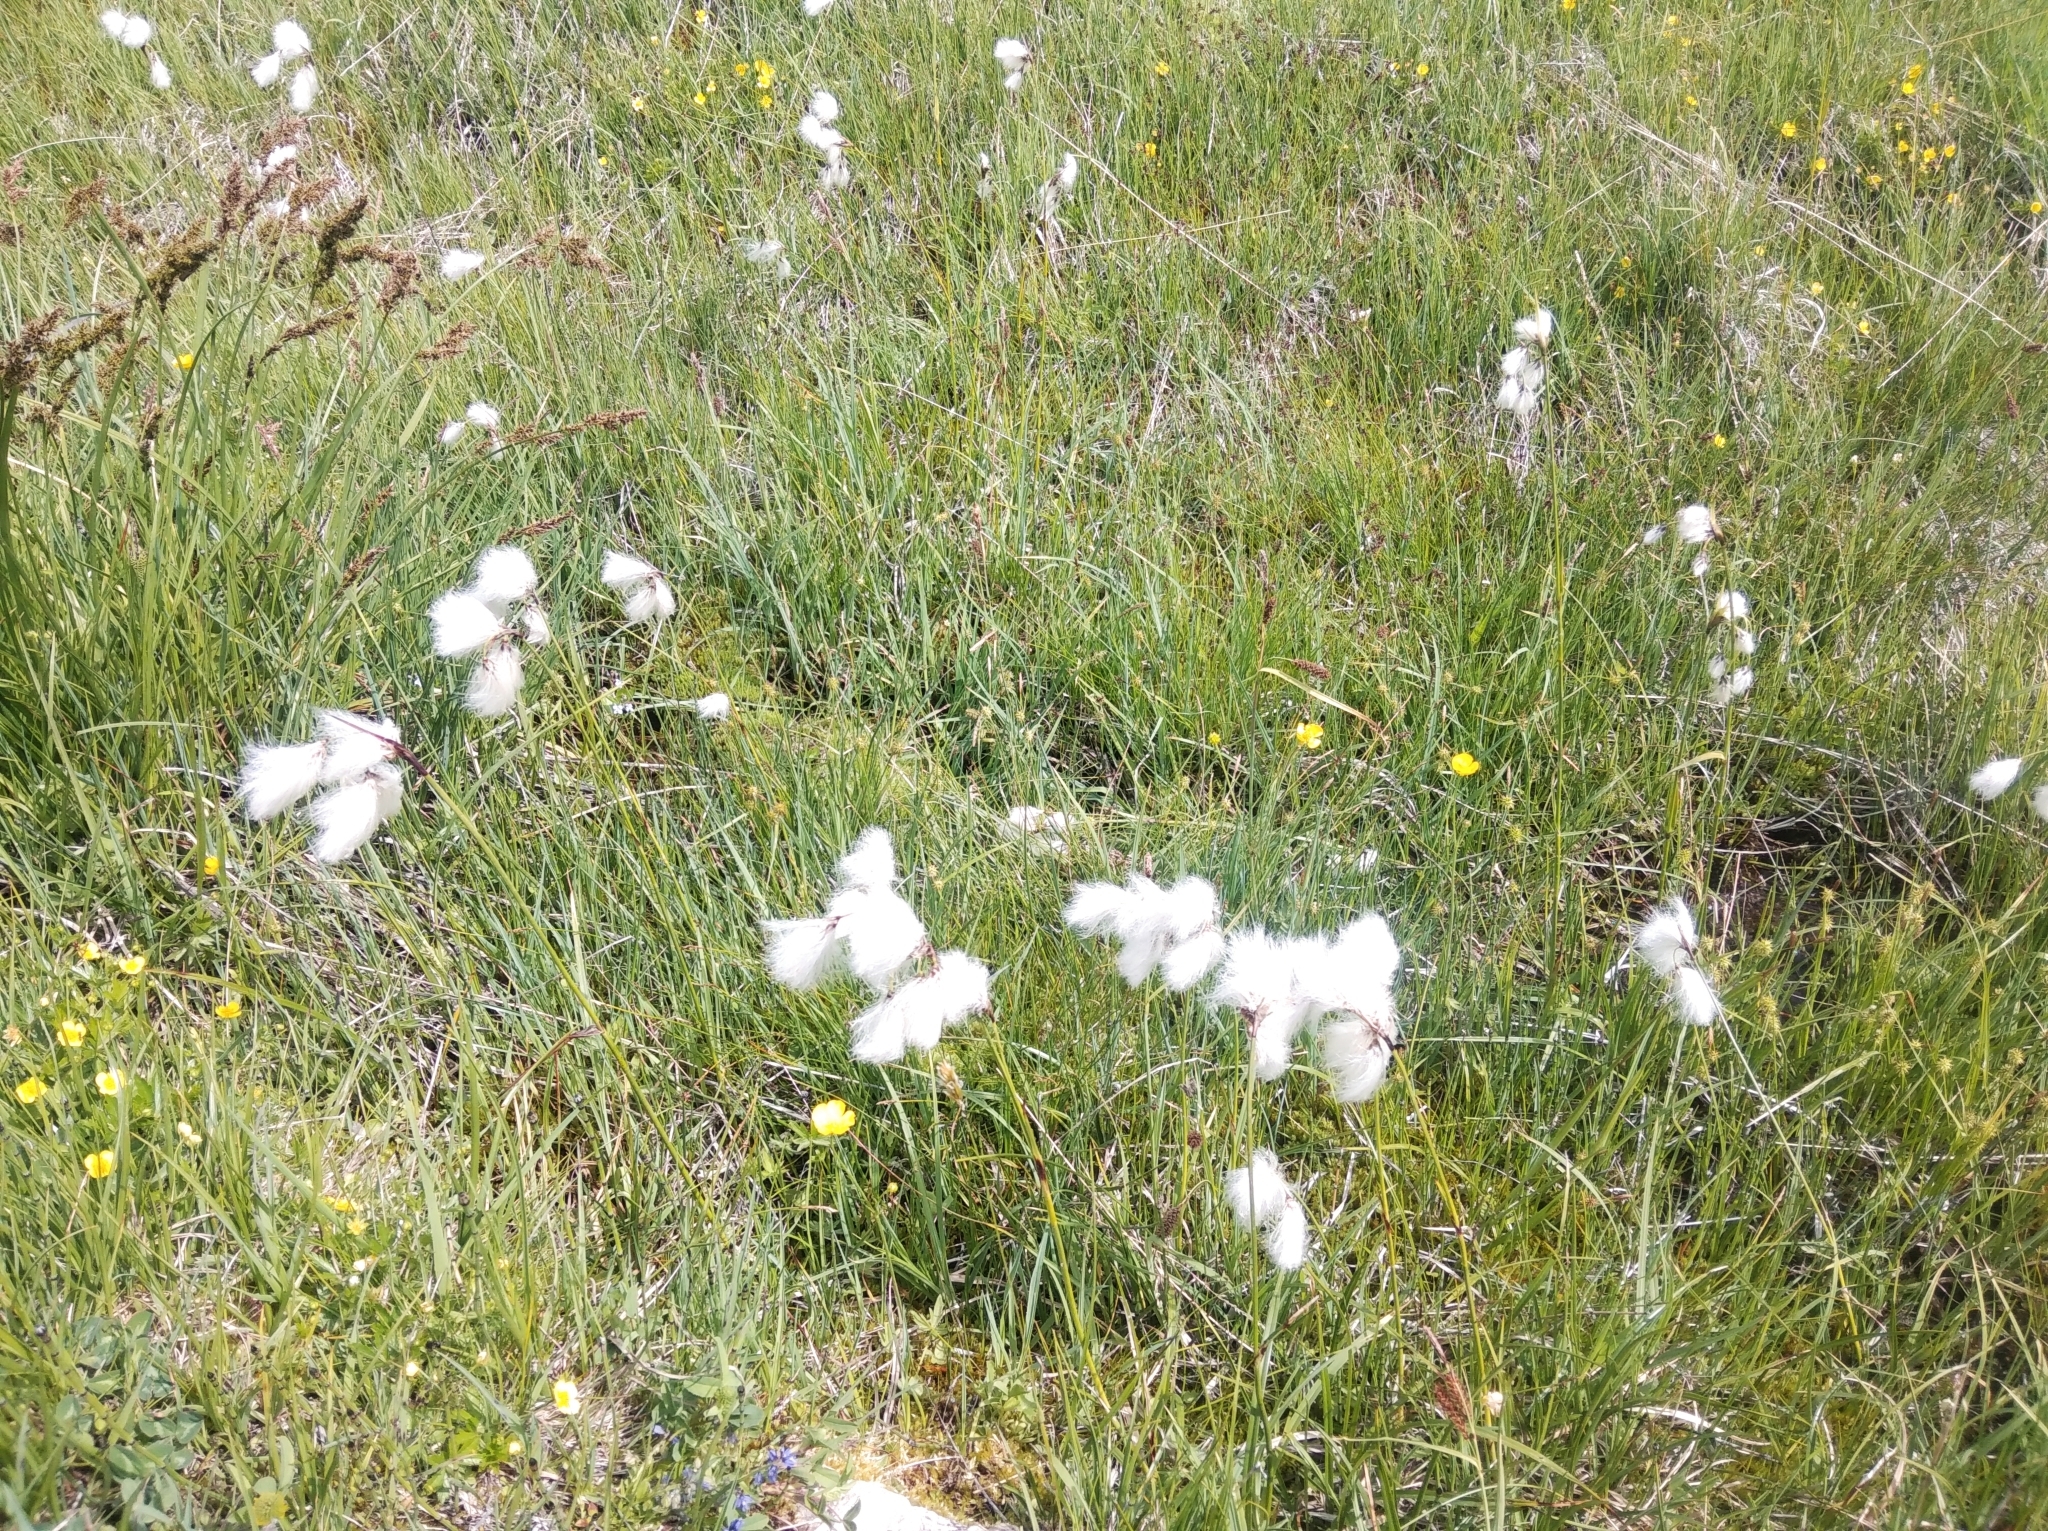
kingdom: Plantae
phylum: Tracheophyta
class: Liliopsida
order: Poales
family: Cyperaceae
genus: Eriophorum
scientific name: Eriophorum angustifolium
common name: Common cottongrass
